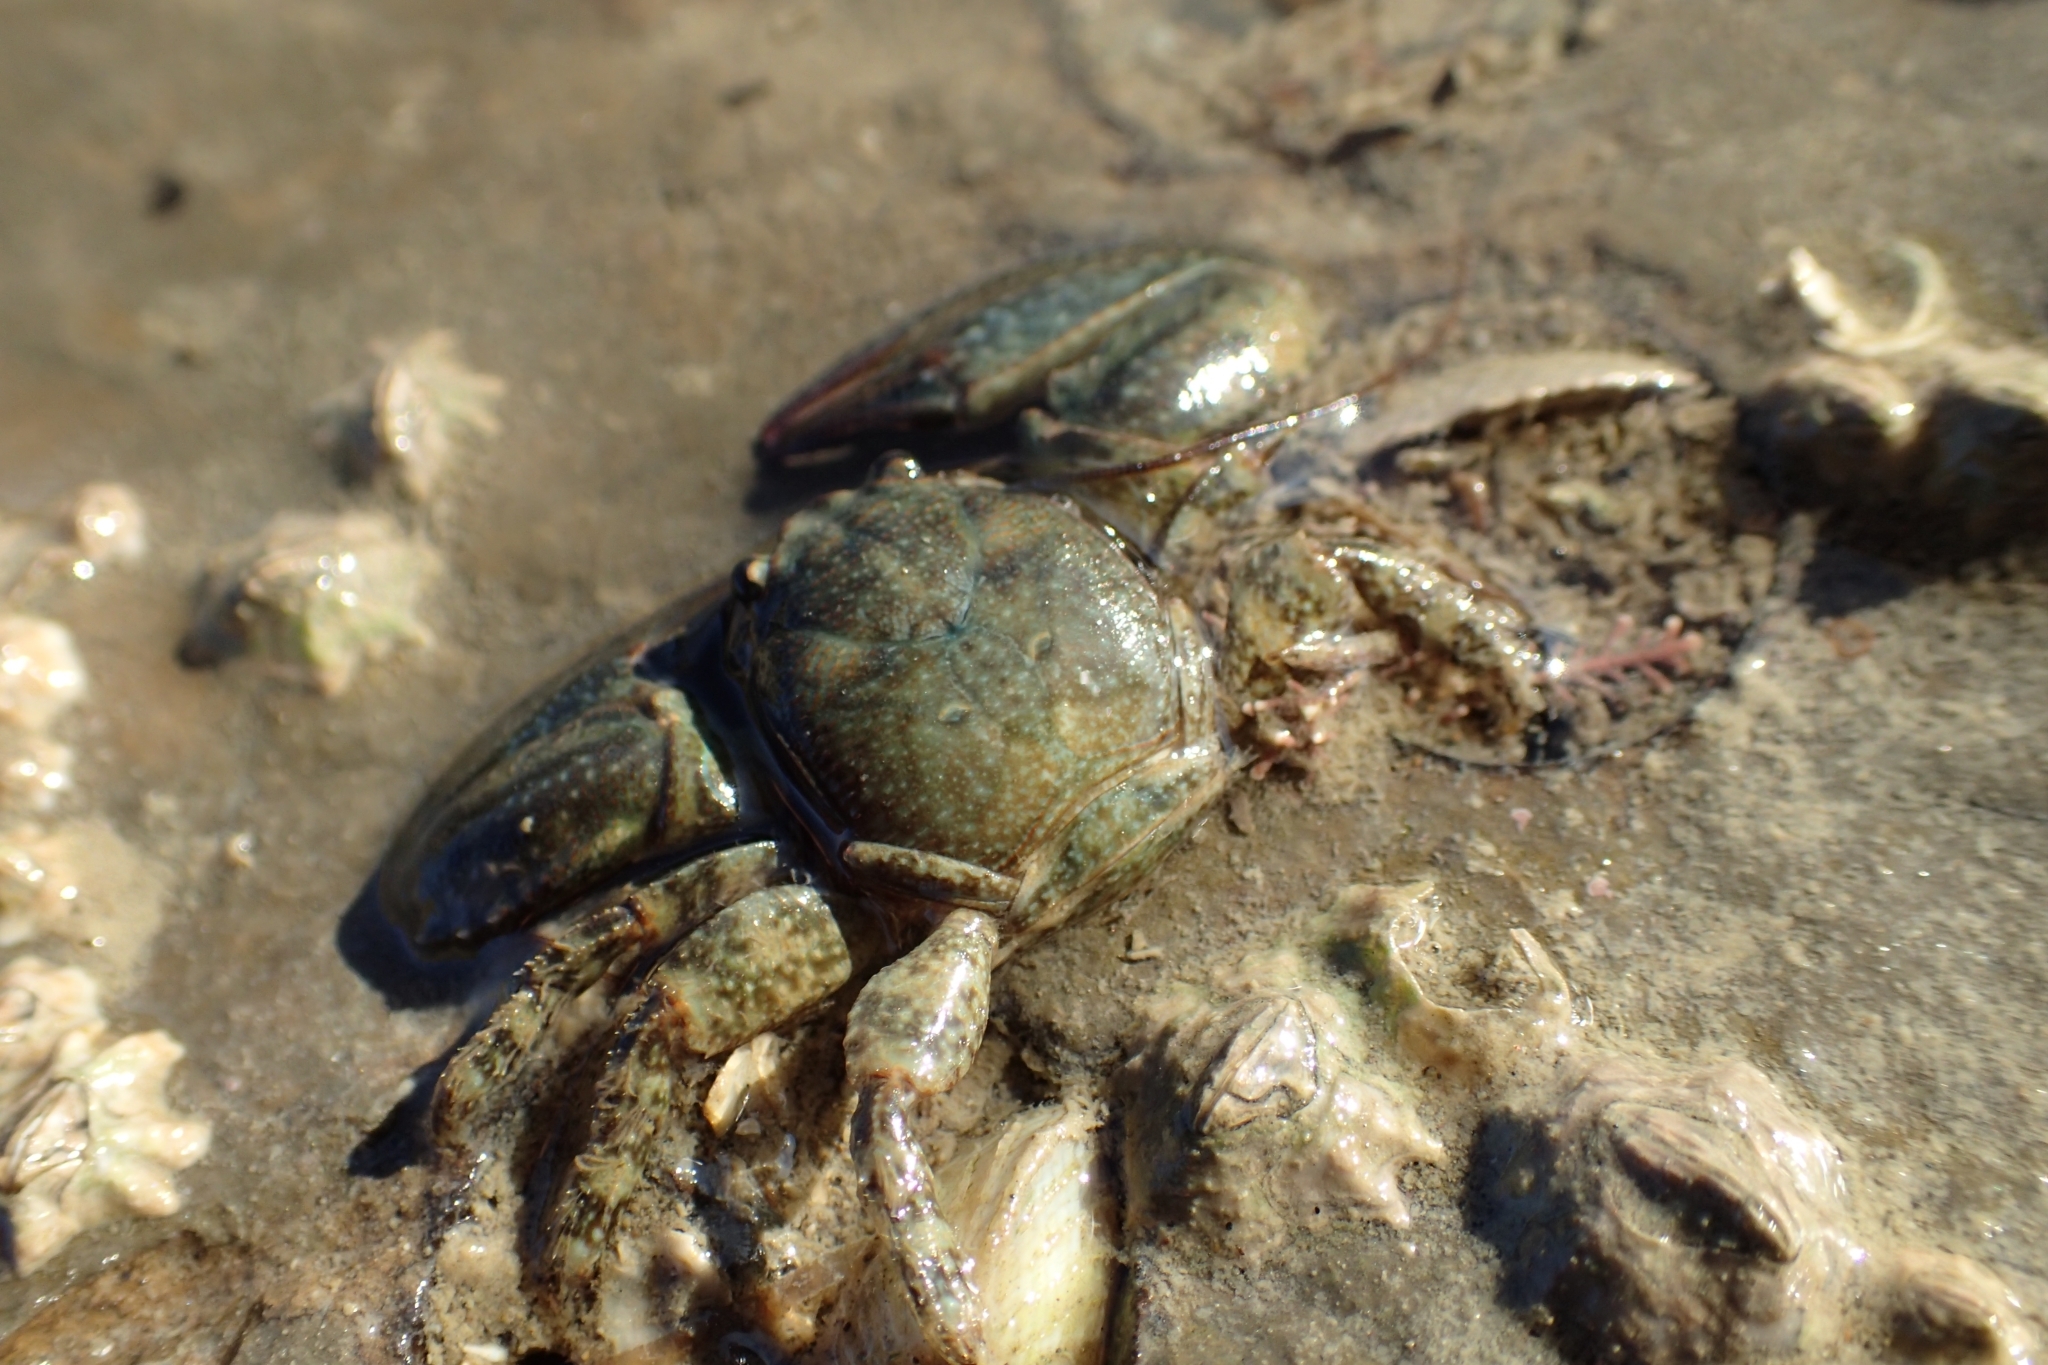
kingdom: Animalia
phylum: Arthropoda
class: Malacostraca
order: Decapoda
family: Porcellanidae
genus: Petrolisthes
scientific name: Petrolisthes elongatus
